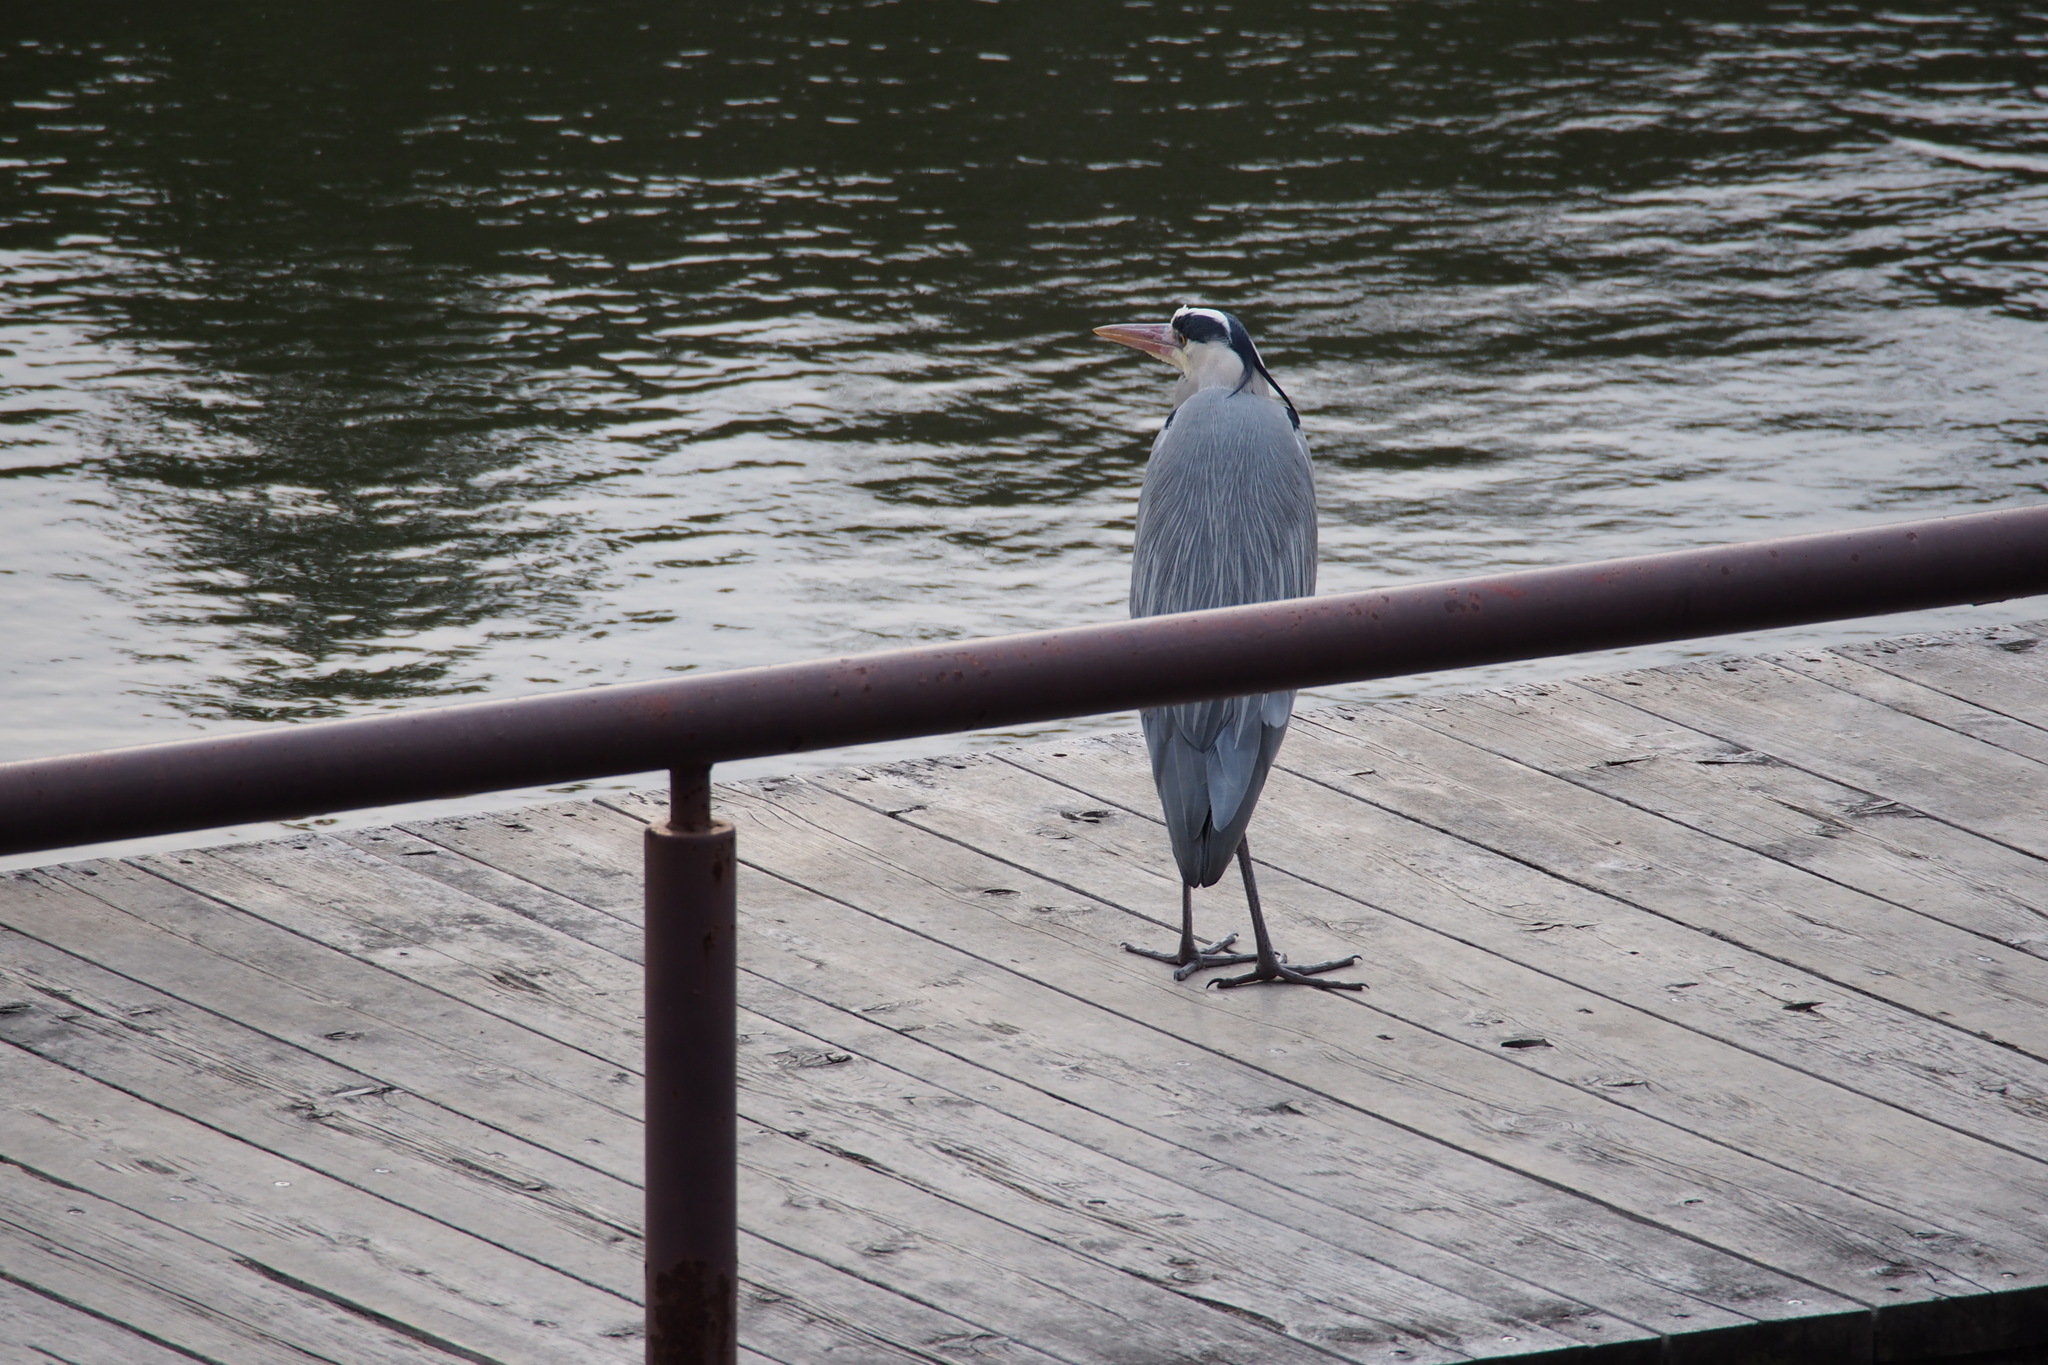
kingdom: Animalia
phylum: Chordata
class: Aves
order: Pelecaniformes
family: Ardeidae
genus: Ardea
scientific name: Ardea cinerea
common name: Grey heron
